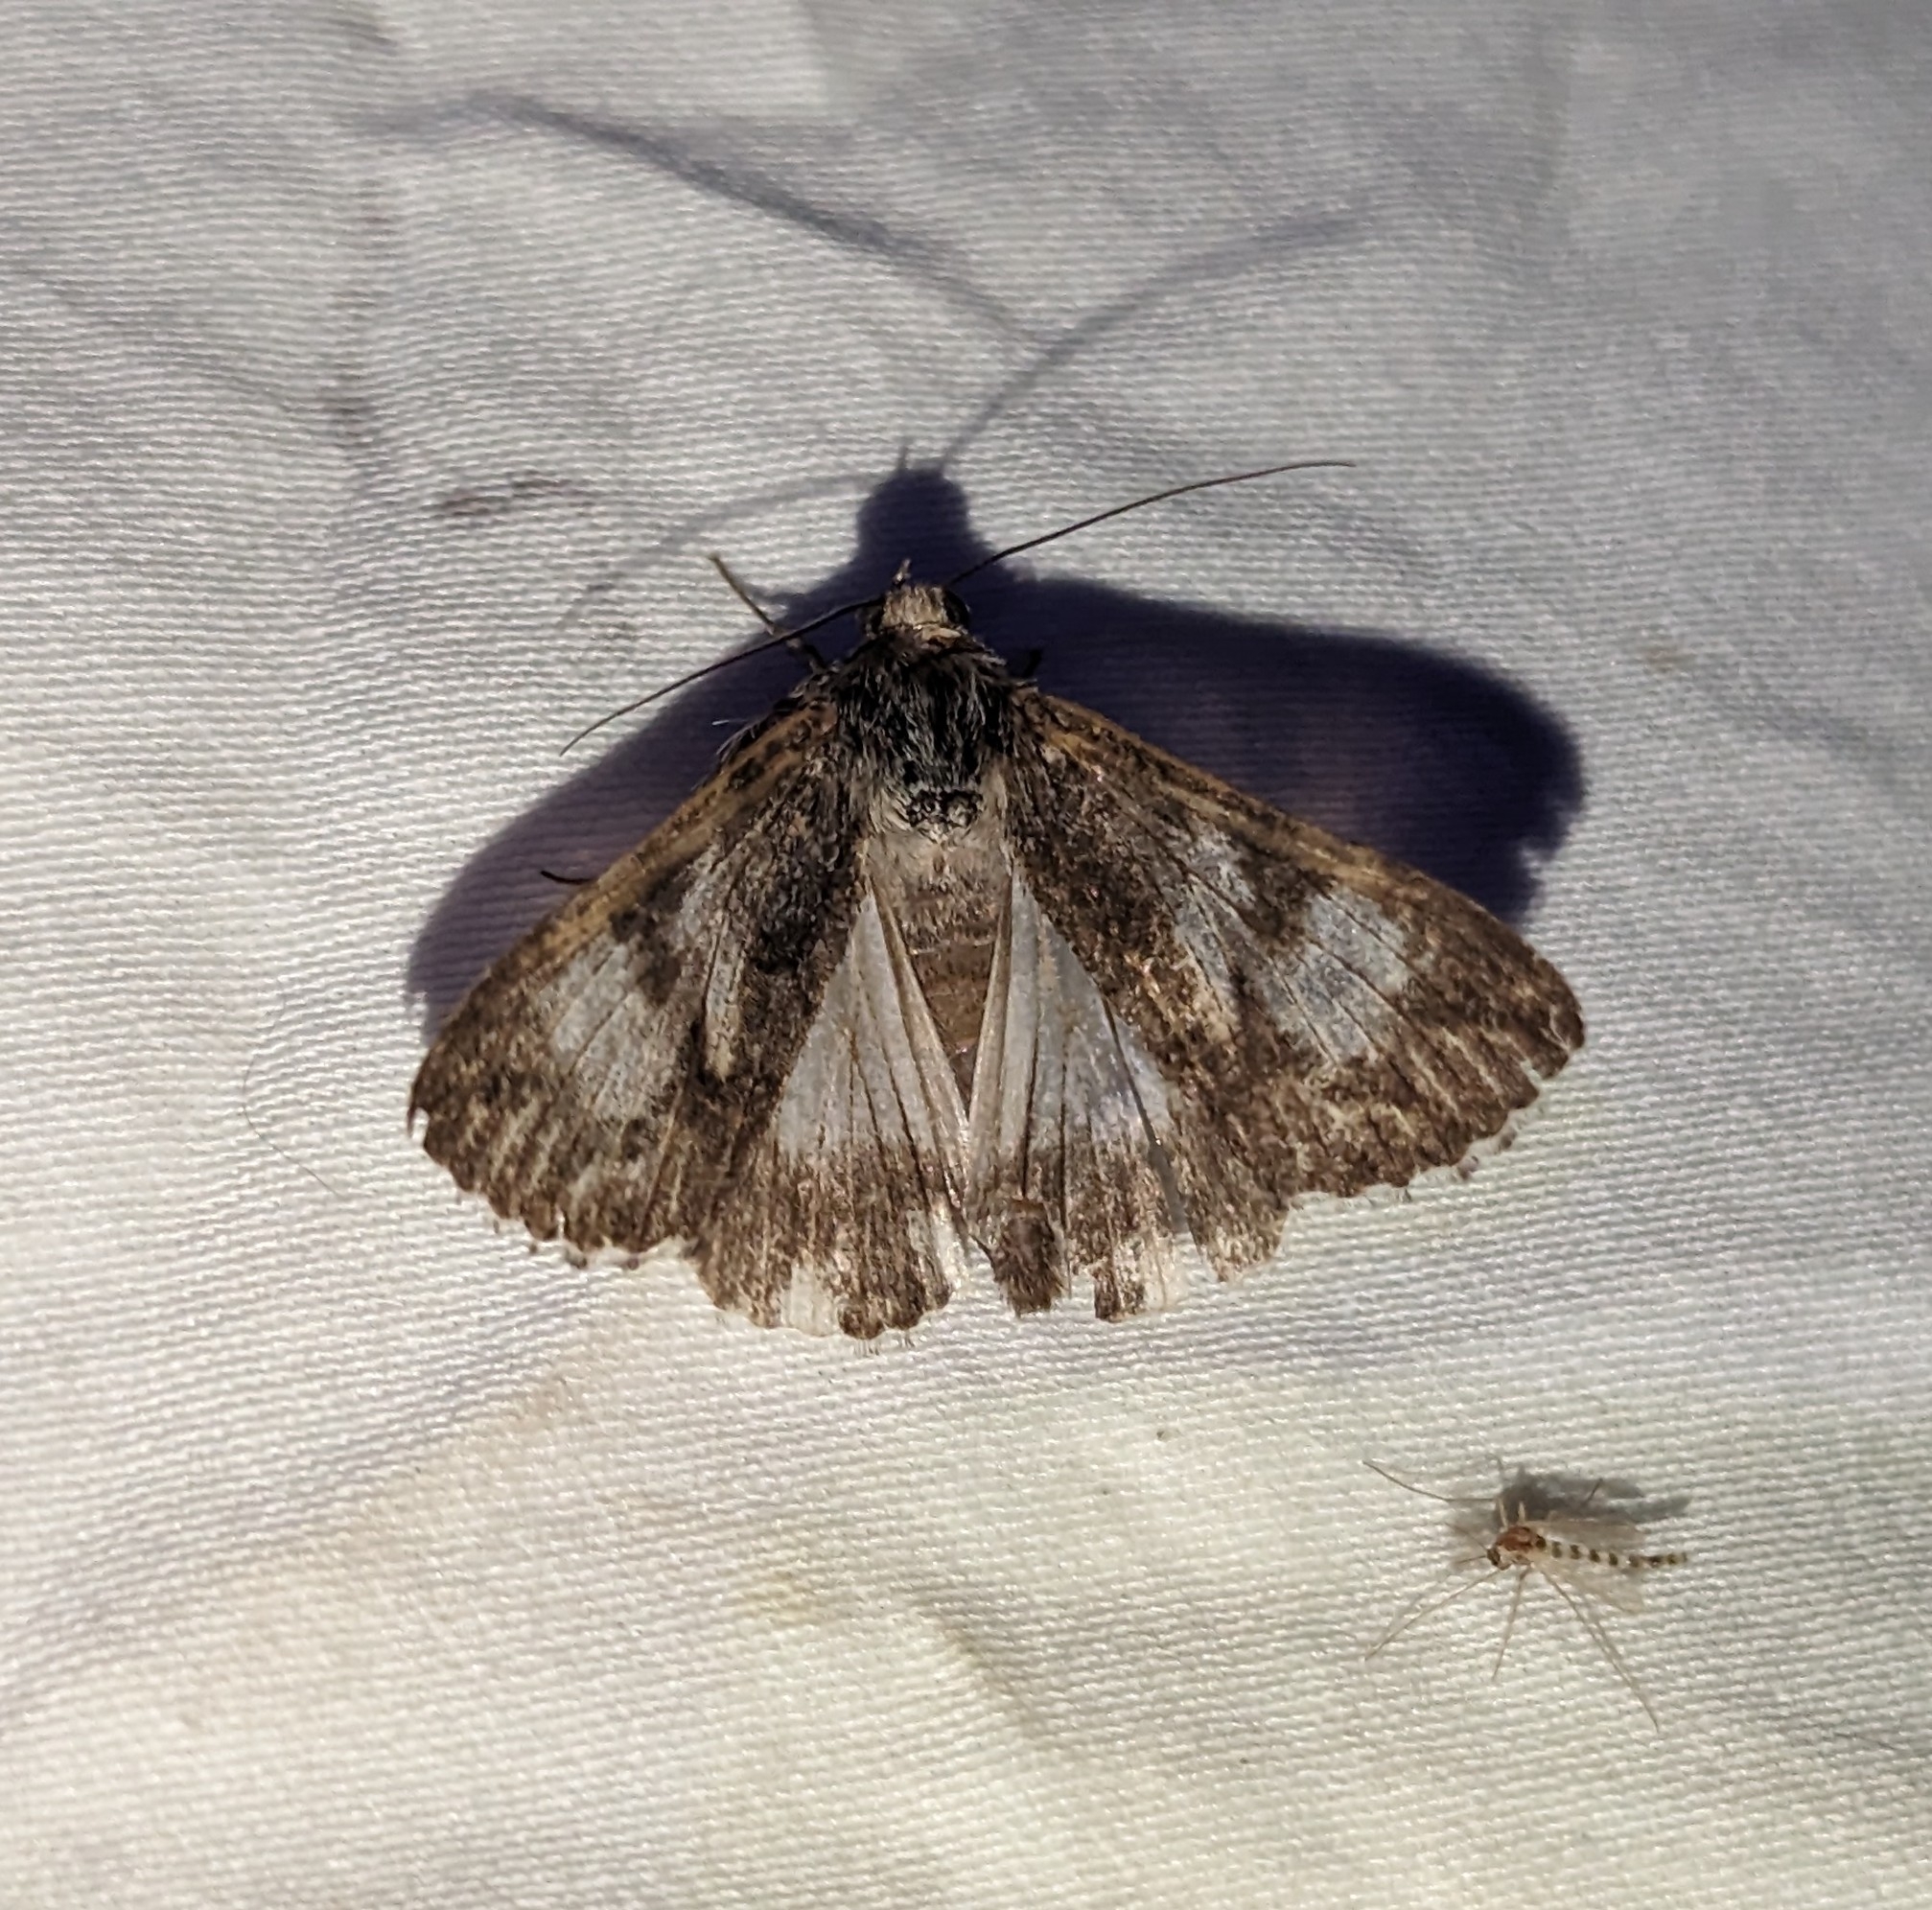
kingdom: Animalia
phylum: Arthropoda
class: Insecta
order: Lepidoptera
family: Erebidae
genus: Melipotis
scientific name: Melipotis jucunda
